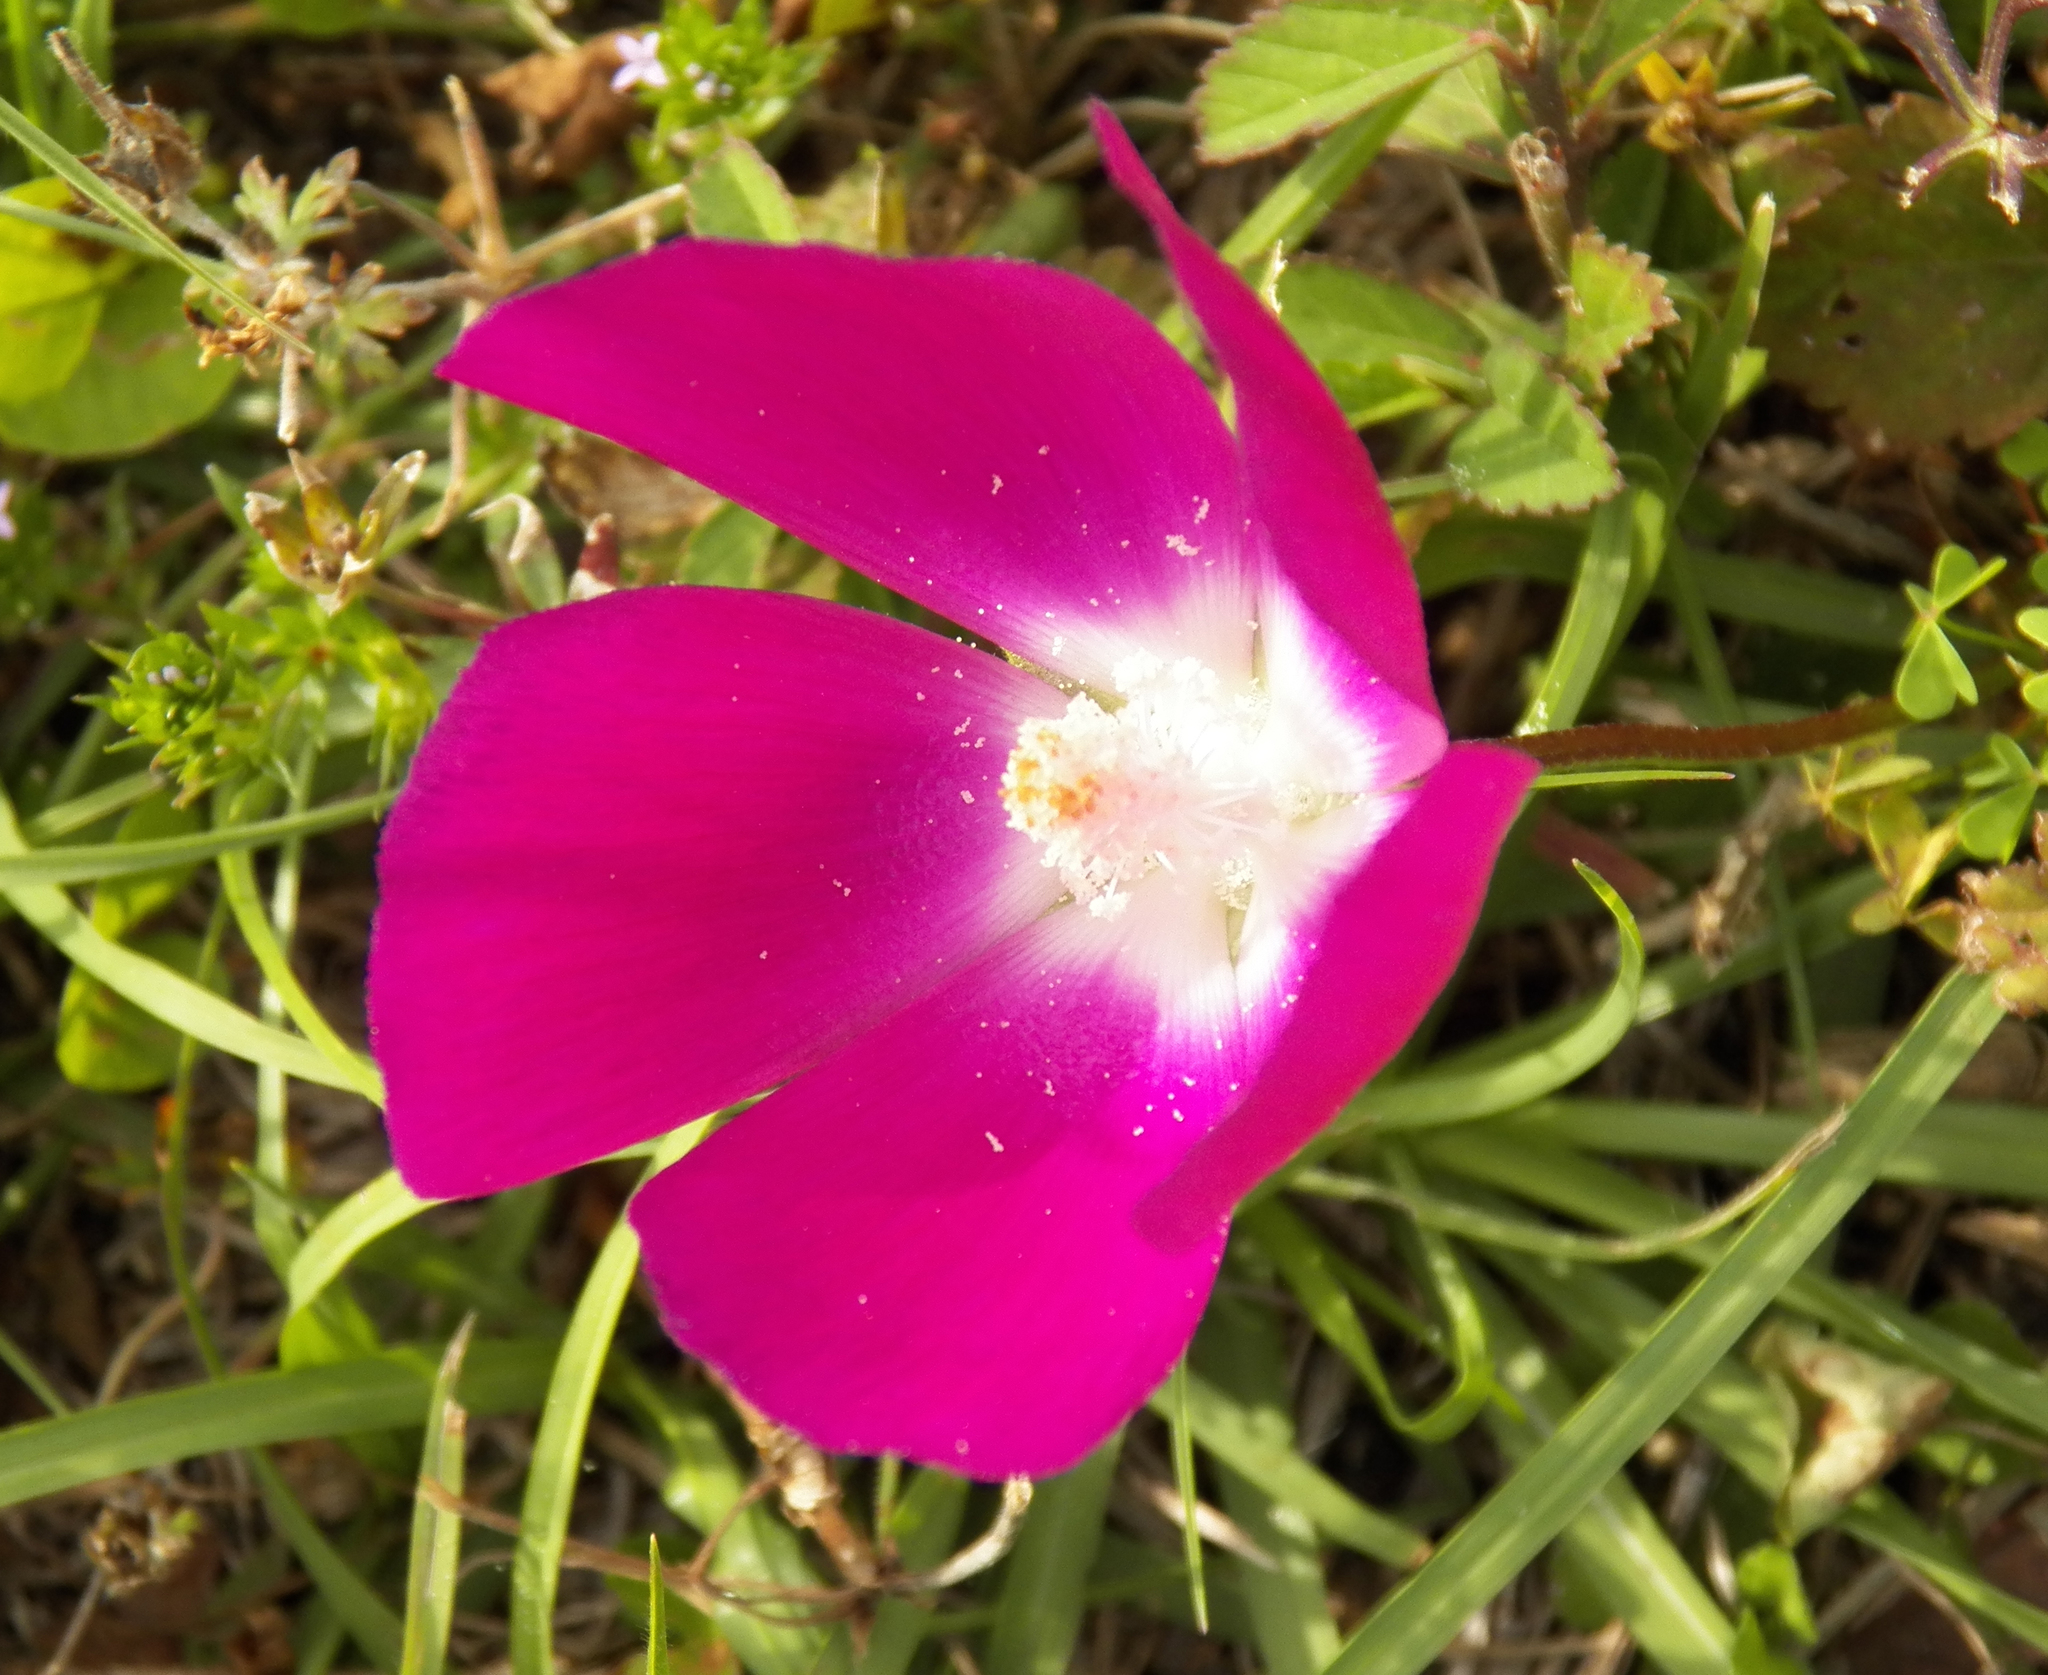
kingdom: Plantae
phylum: Tracheophyta
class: Magnoliopsida
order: Malvales
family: Malvaceae
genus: Callirhoe
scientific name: Callirhoe involucrata
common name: Purple poppy-mallow
